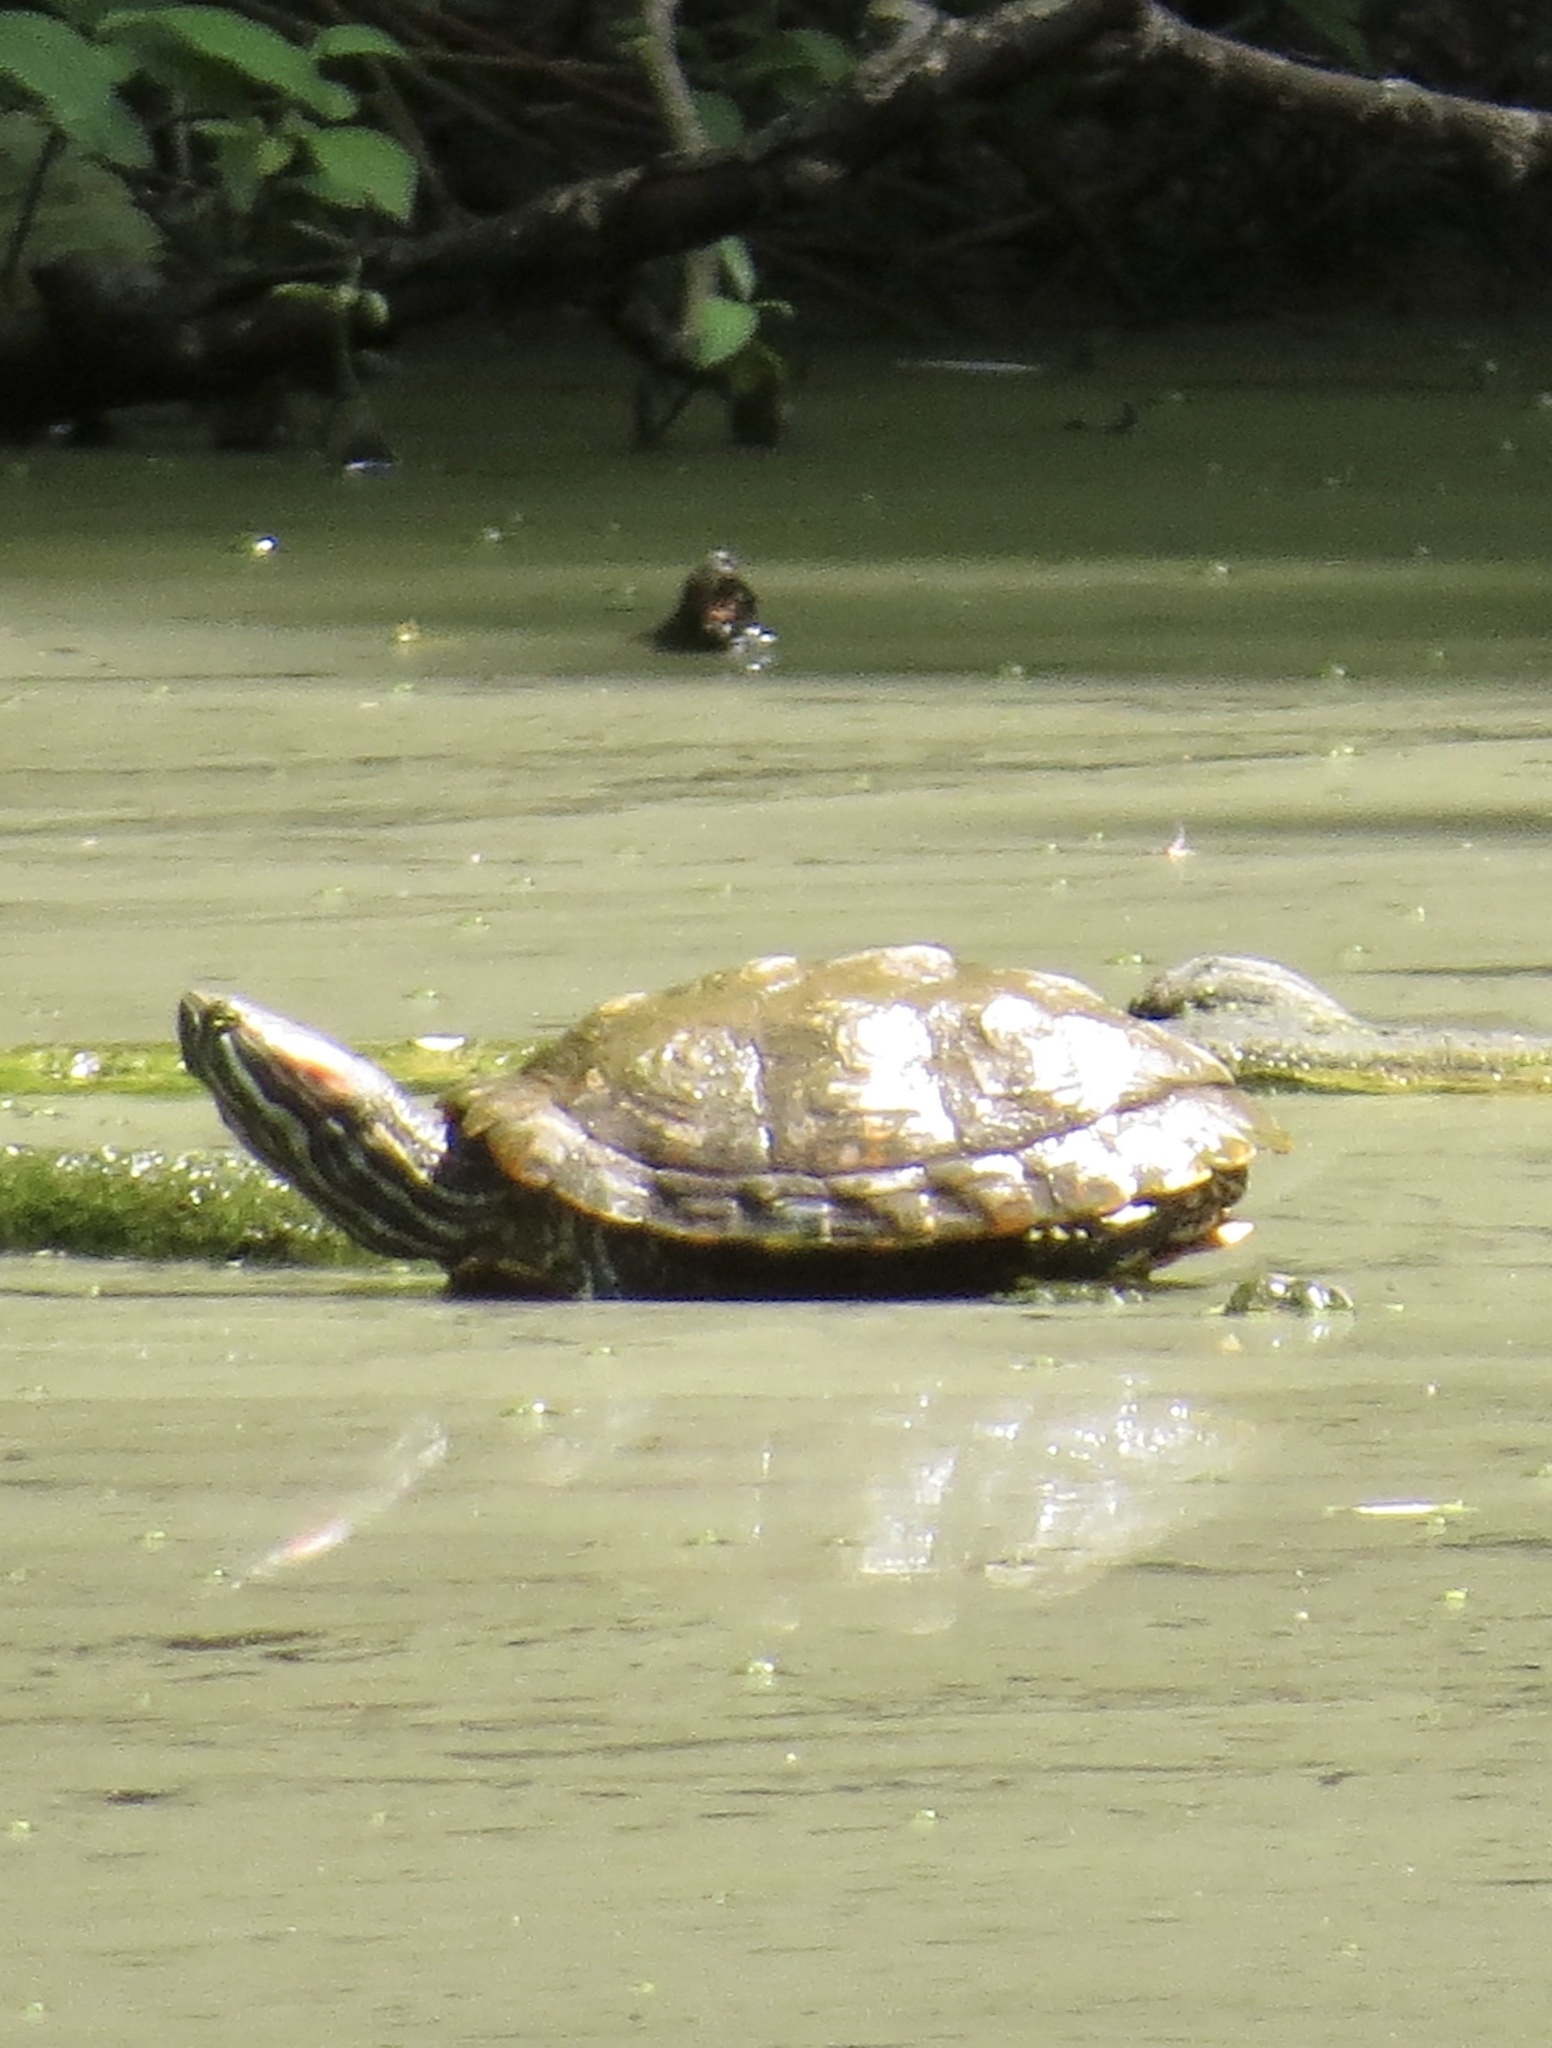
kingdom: Animalia
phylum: Chordata
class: Testudines
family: Emydidae
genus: Trachemys
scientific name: Trachemys scripta
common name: Slider
